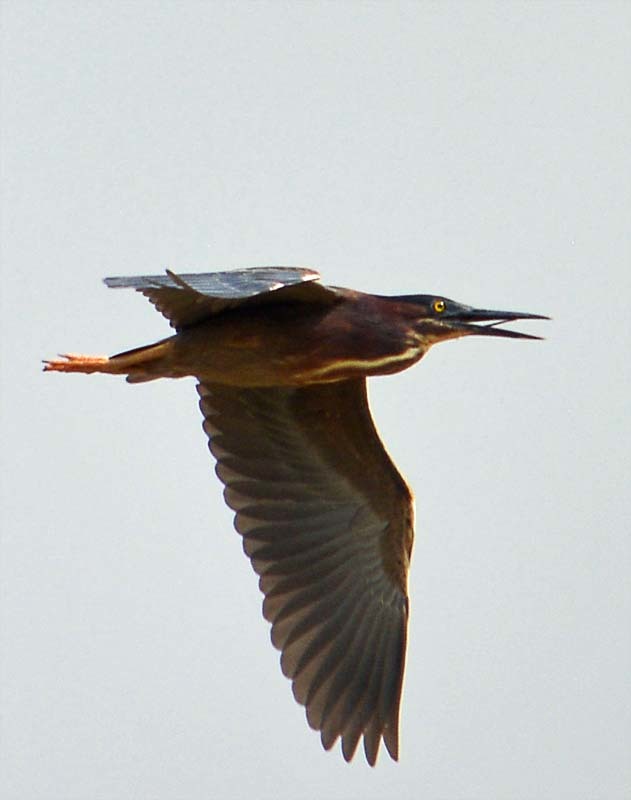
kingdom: Animalia
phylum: Chordata
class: Aves
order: Pelecaniformes
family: Ardeidae
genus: Butorides
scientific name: Butorides virescens
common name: Green heron
